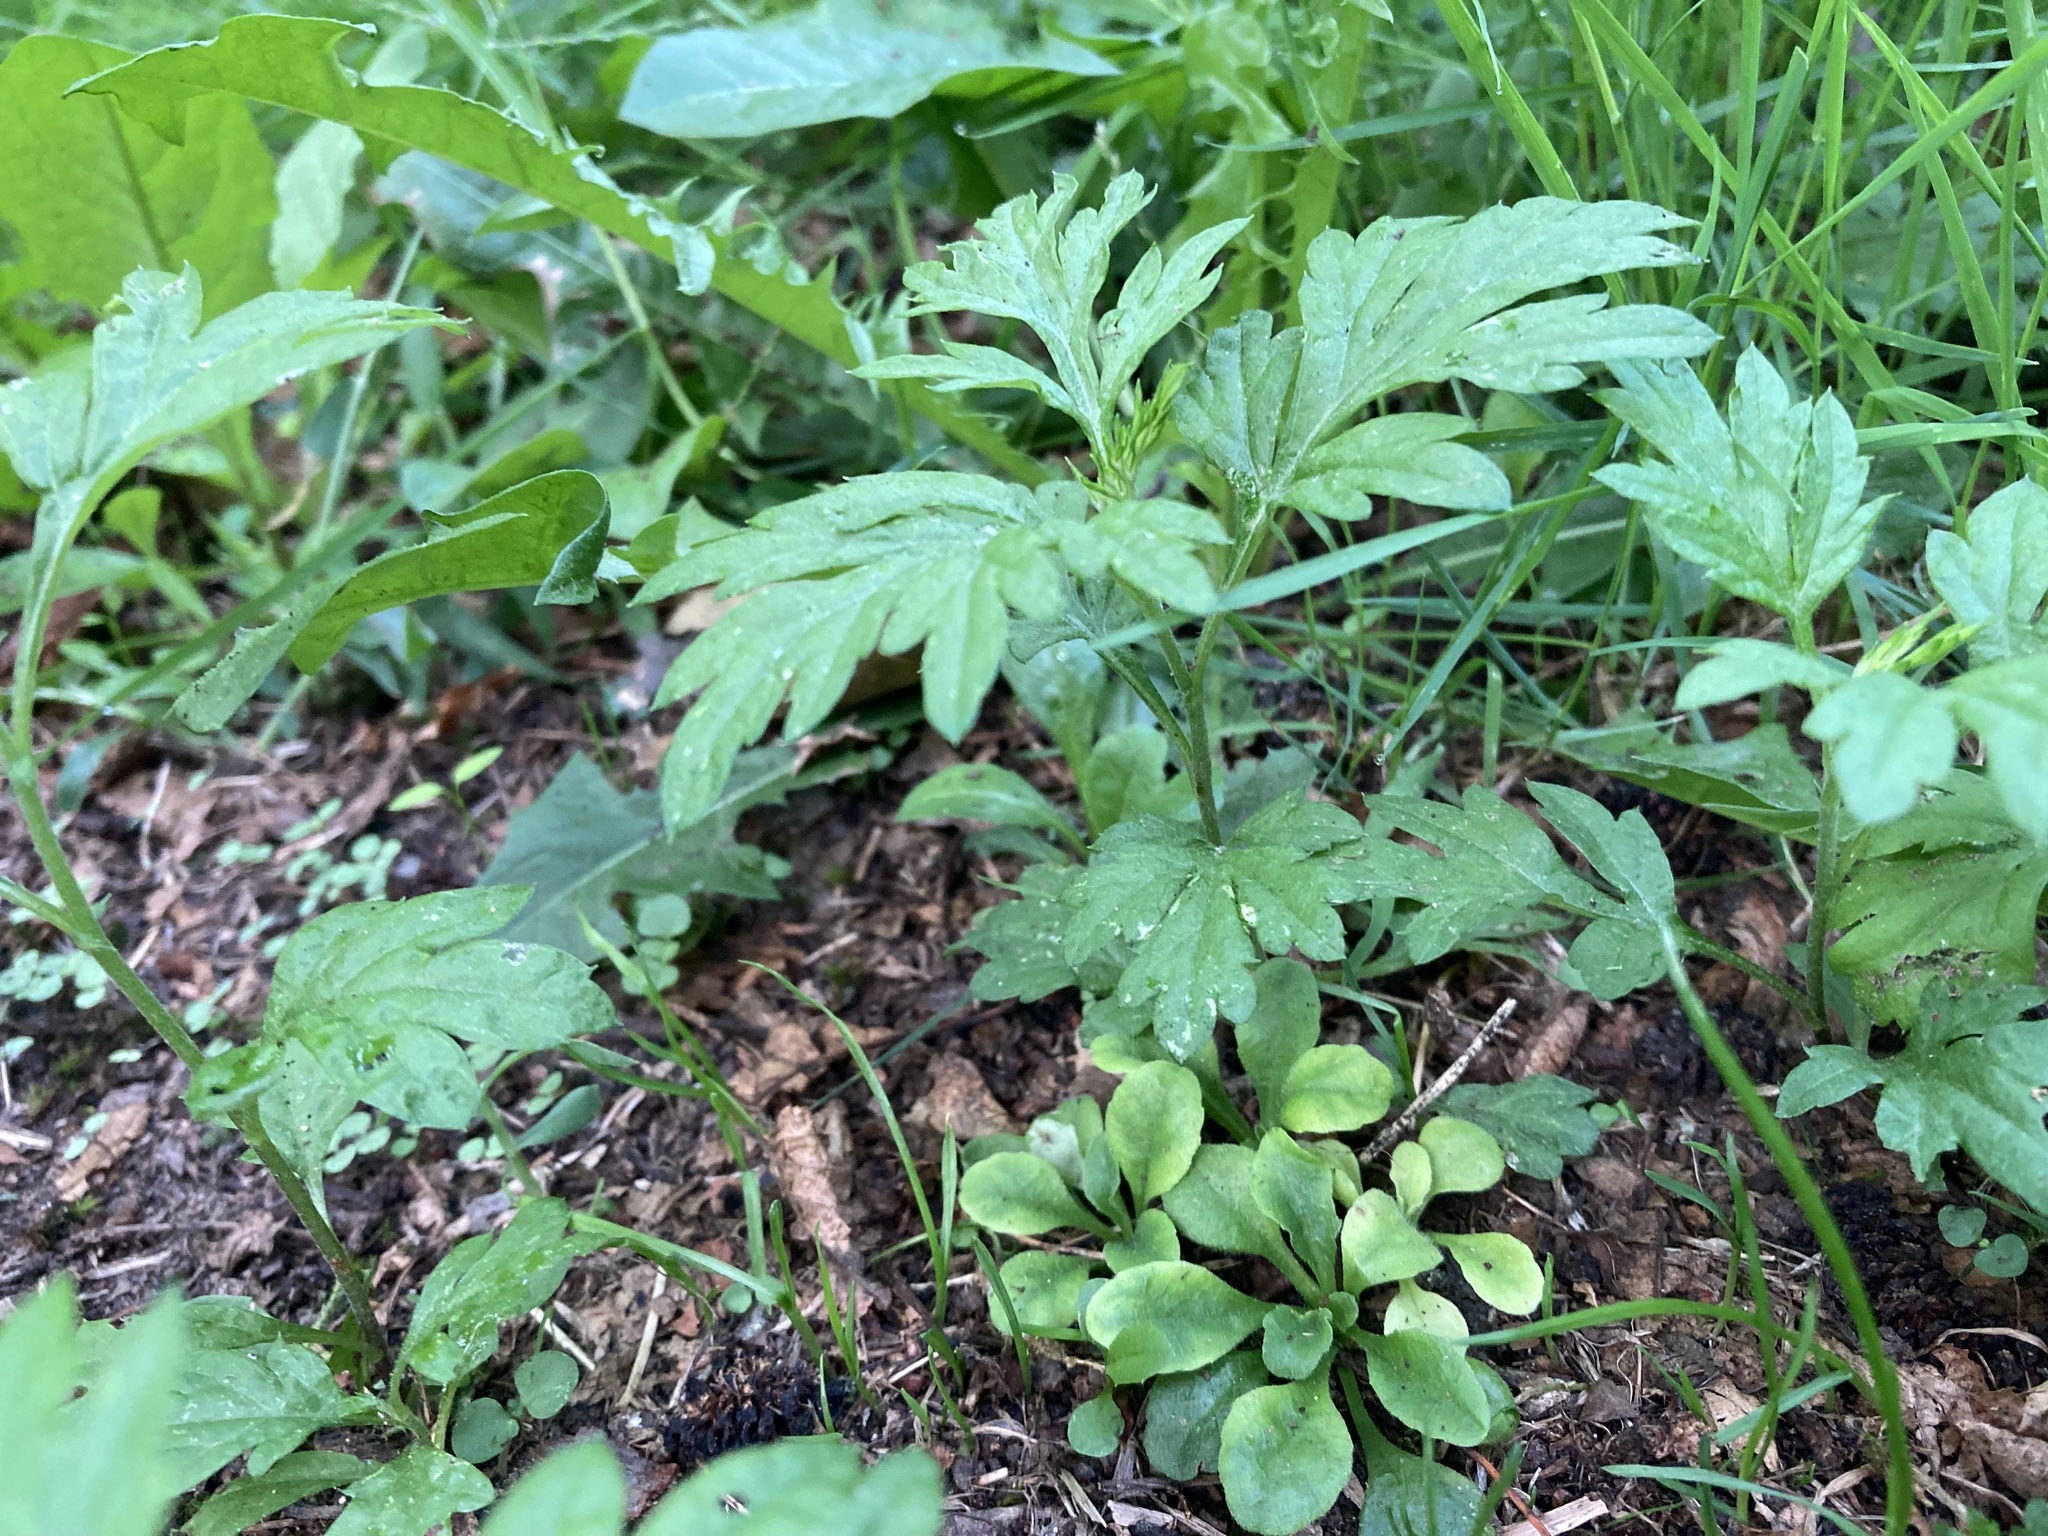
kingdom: Plantae
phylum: Tracheophyta
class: Magnoliopsida
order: Asterales
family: Asteraceae
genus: Artemisia
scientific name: Artemisia vulgaris
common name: Mugwort
